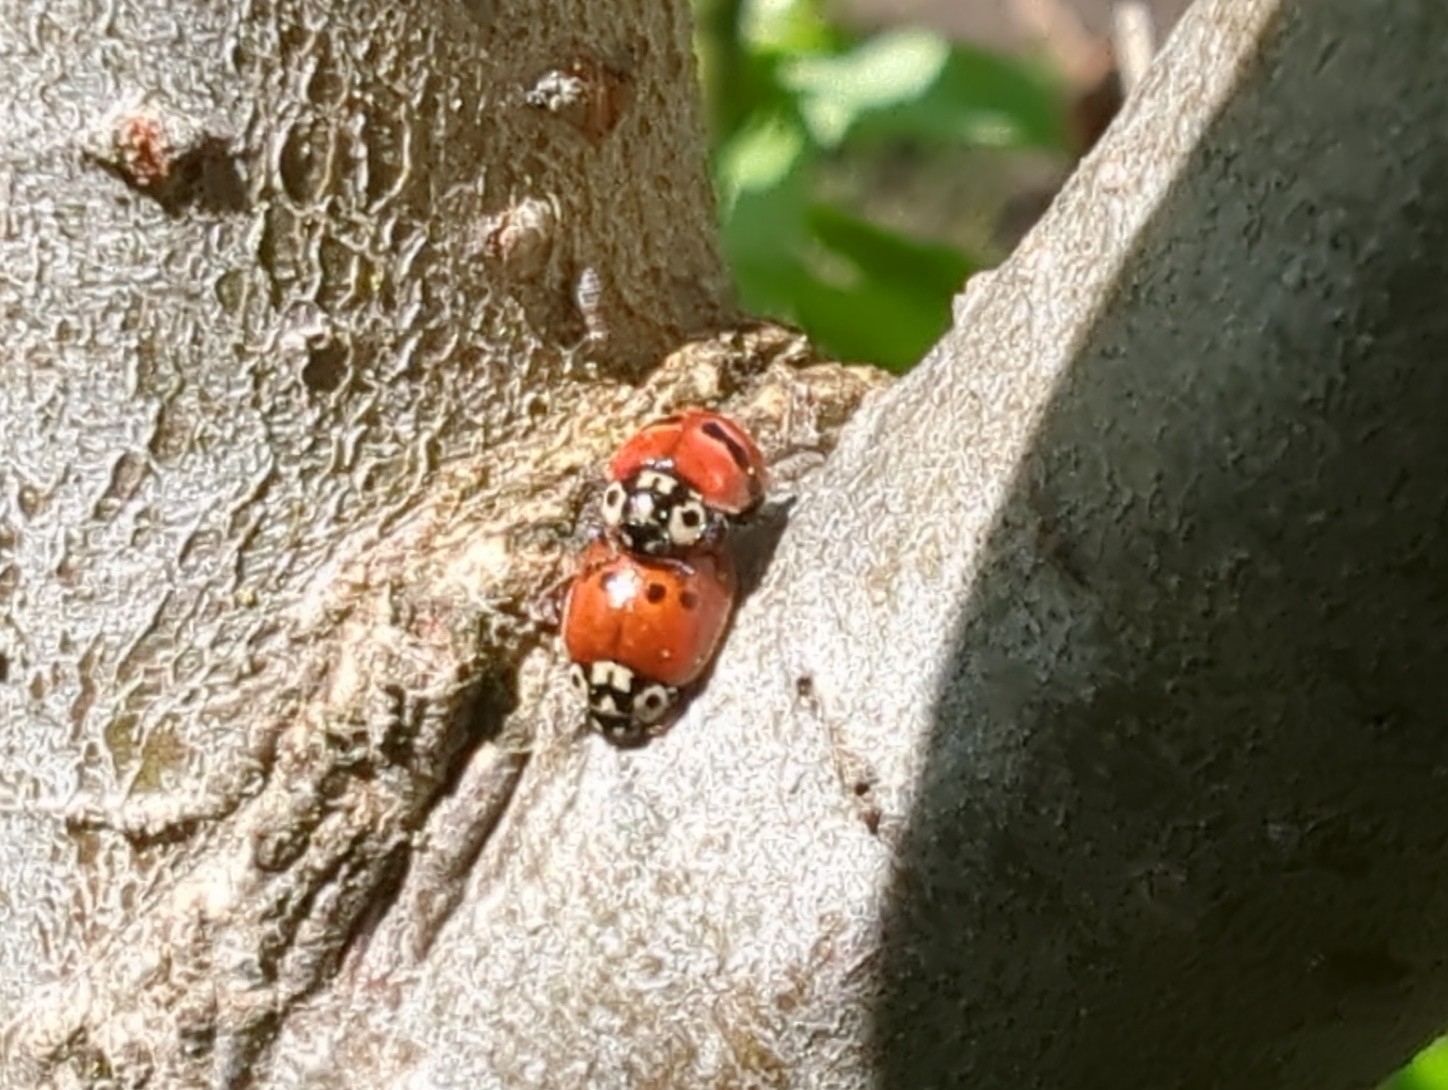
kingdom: Animalia
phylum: Arthropoda
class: Insecta
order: Coleoptera
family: Coccinellidae
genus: Adalia
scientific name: Adalia bipunctata
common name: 2-spot ladybird
